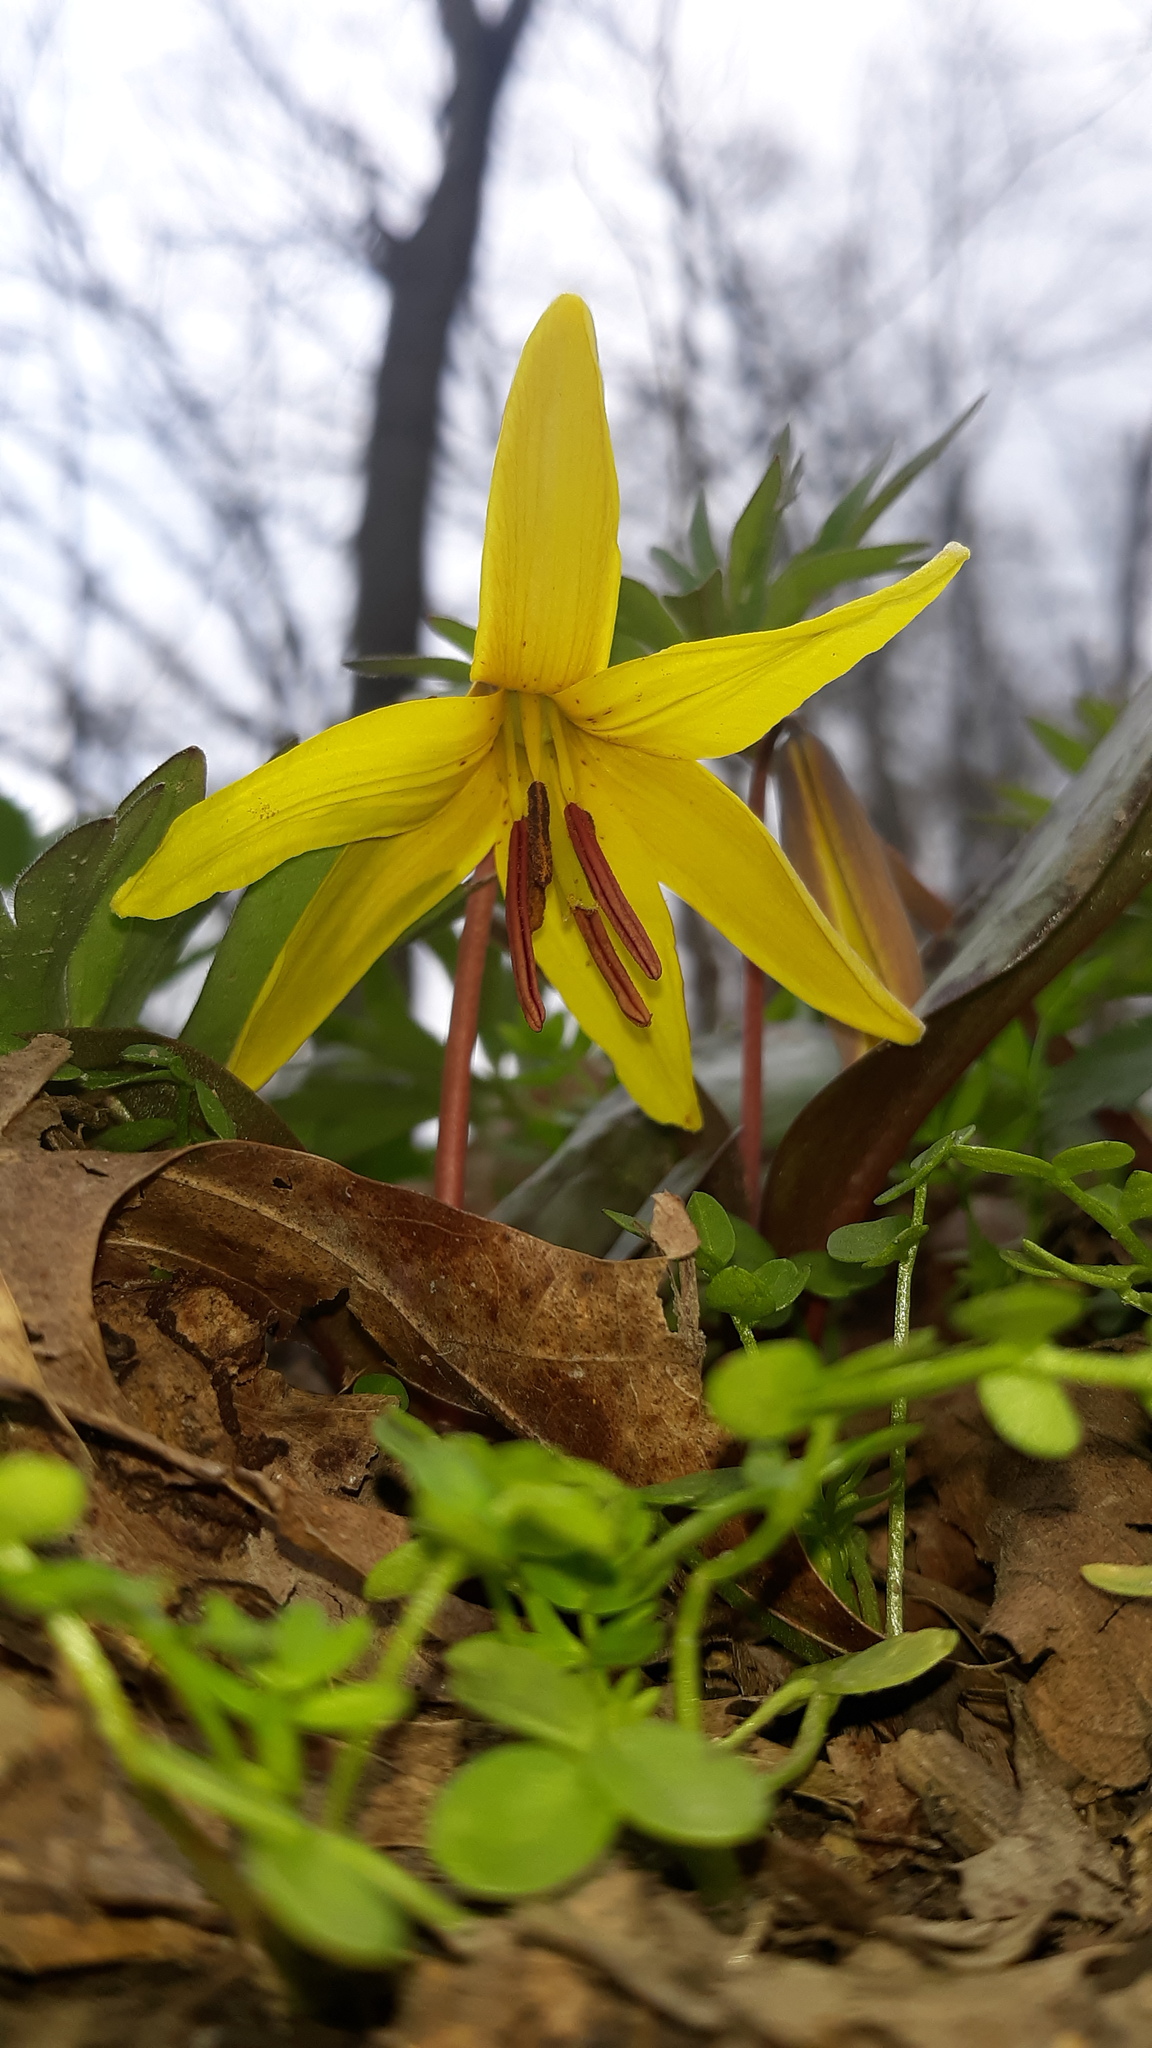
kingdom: Plantae
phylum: Tracheophyta
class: Liliopsida
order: Liliales
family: Liliaceae
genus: Erythronium
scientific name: Erythronium americanum
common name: Yellow adder's-tongue
